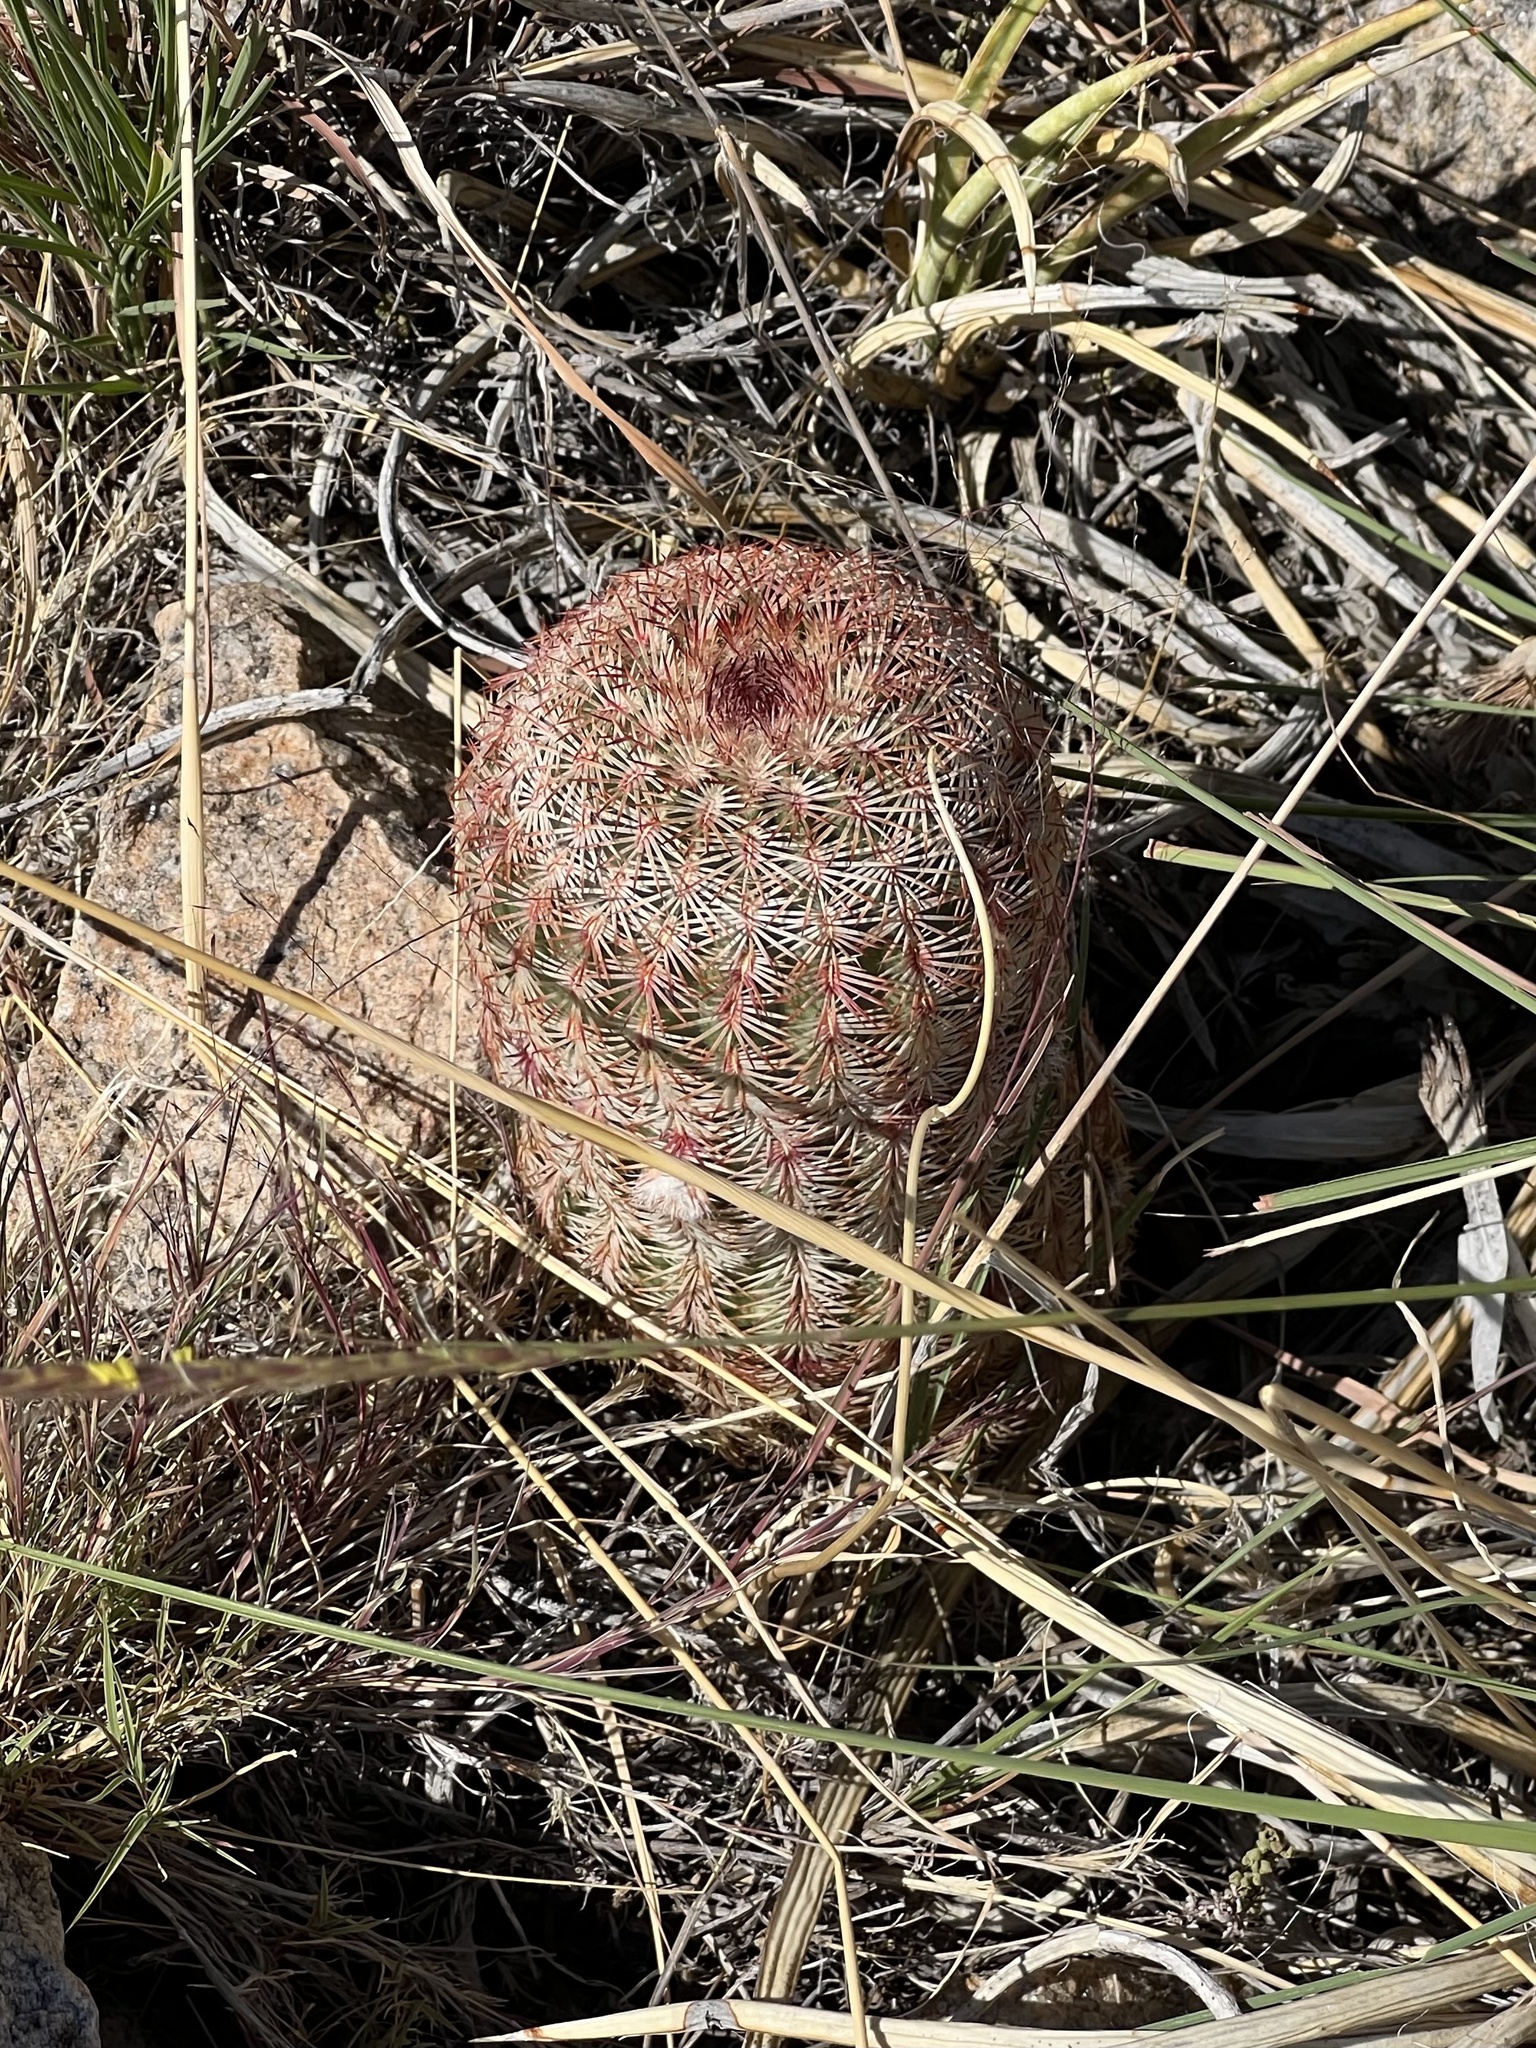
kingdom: Plantae
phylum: Tracheophyta
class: Magnoliopsida
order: Caryophyllales
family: Cactaceae
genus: Echinocereus
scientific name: Echinocereus rigidissimus
